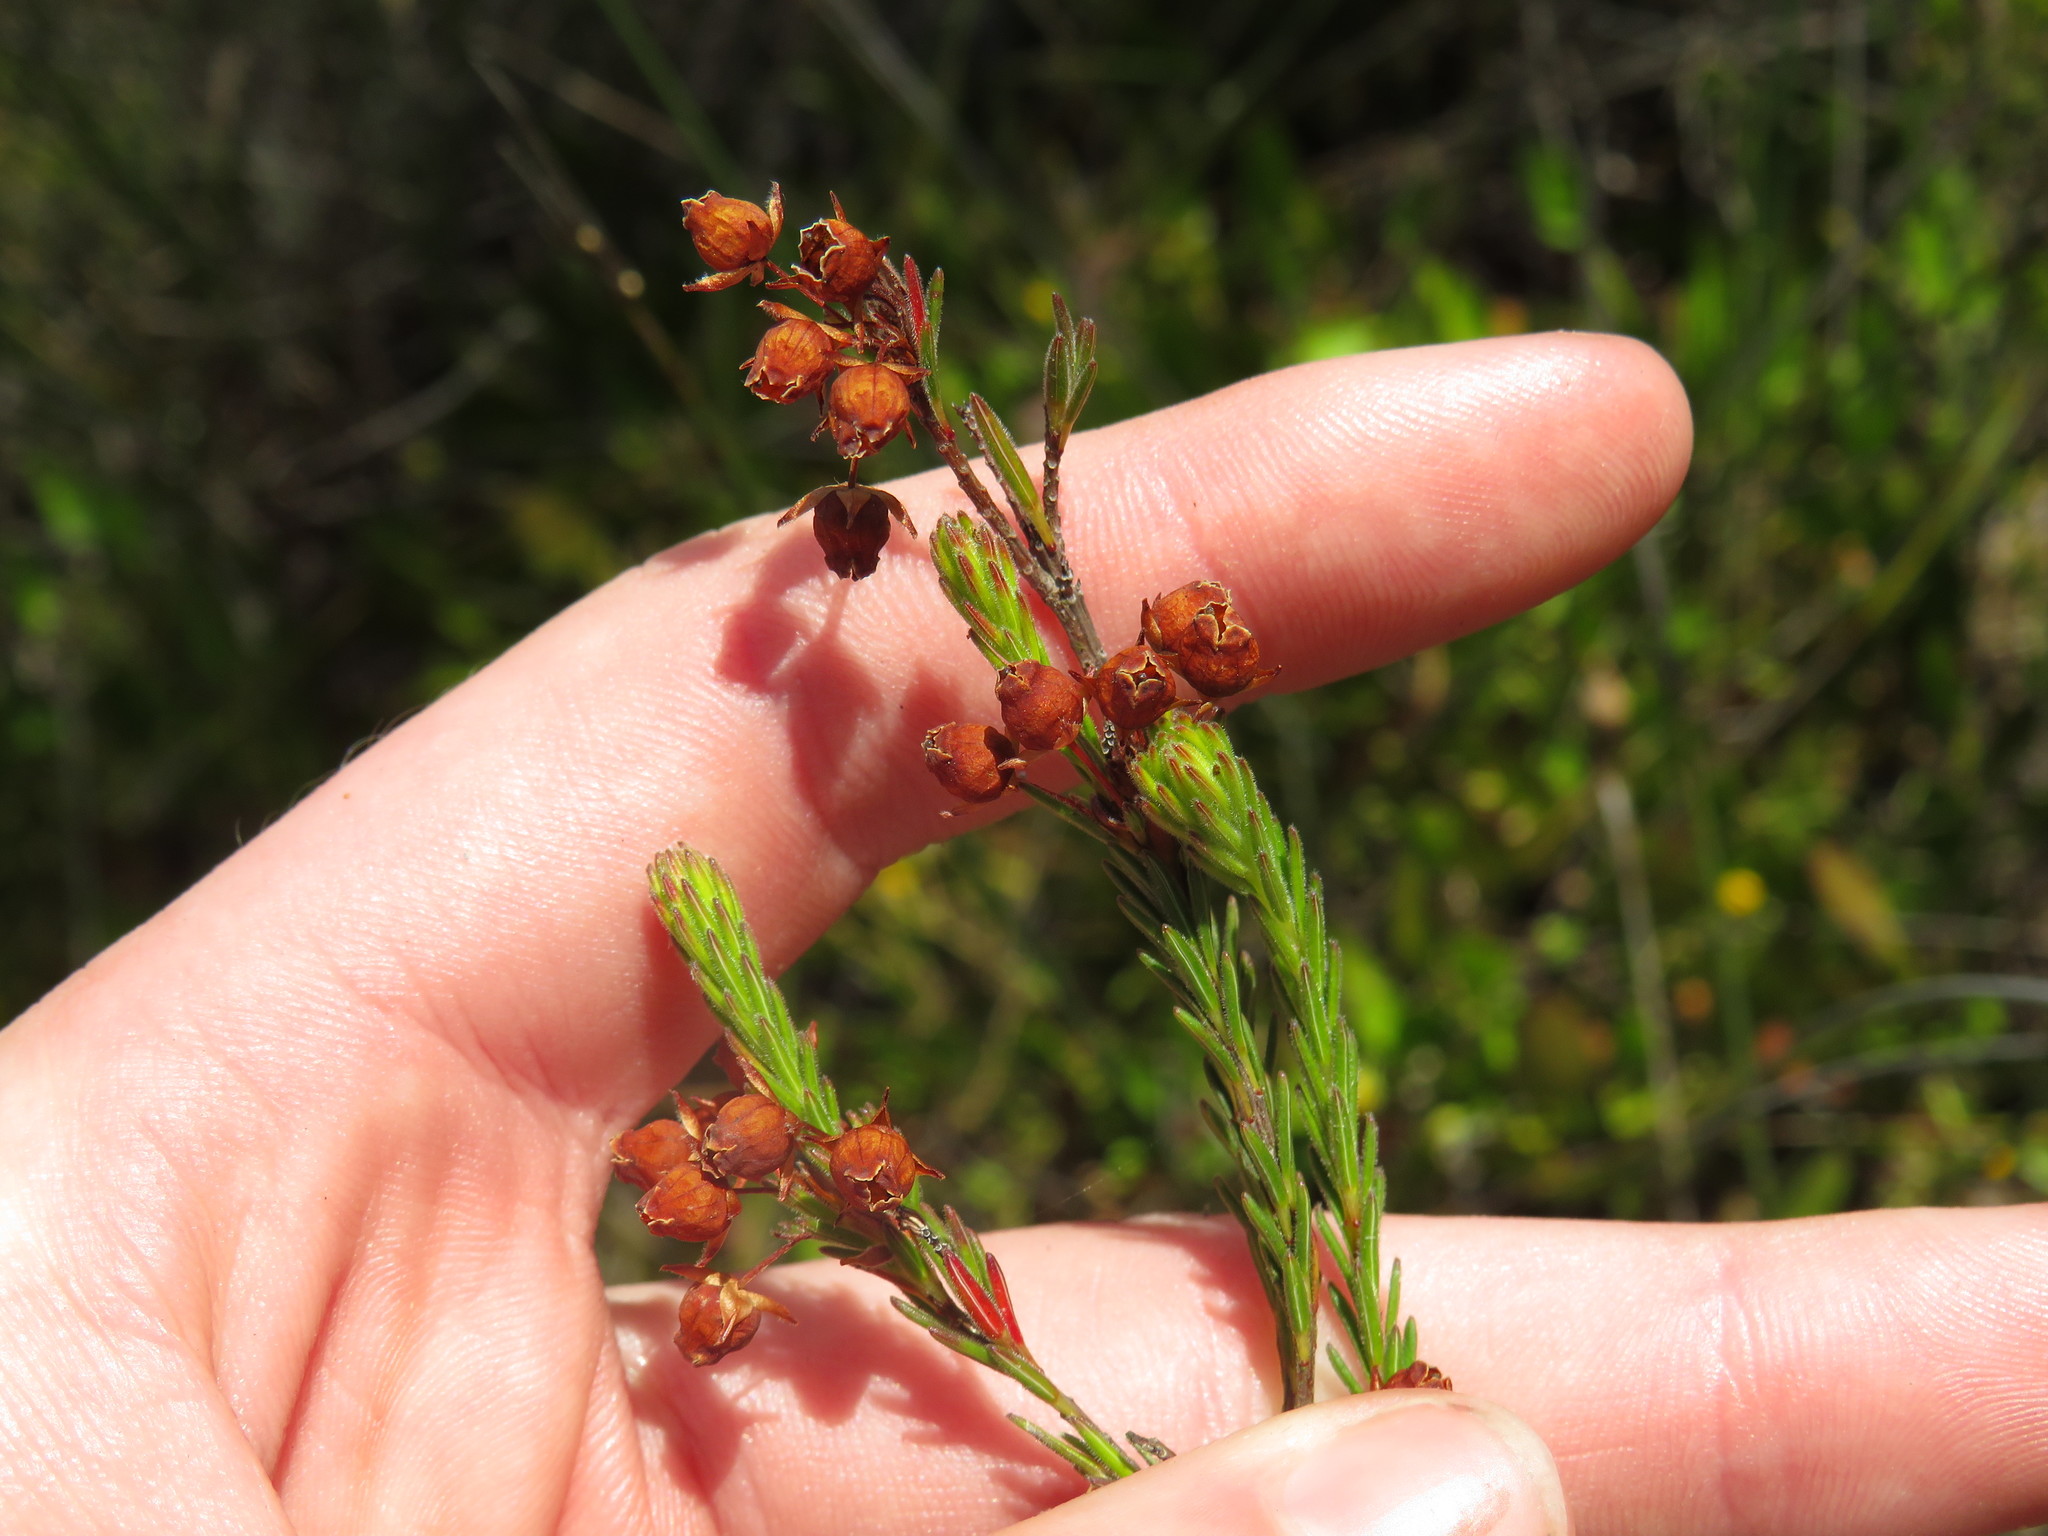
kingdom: Plantae
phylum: Tracheophyta
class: Magnoliopsida
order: Ericales
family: Ericaceae
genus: Erica
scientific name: Erica pilulifera
